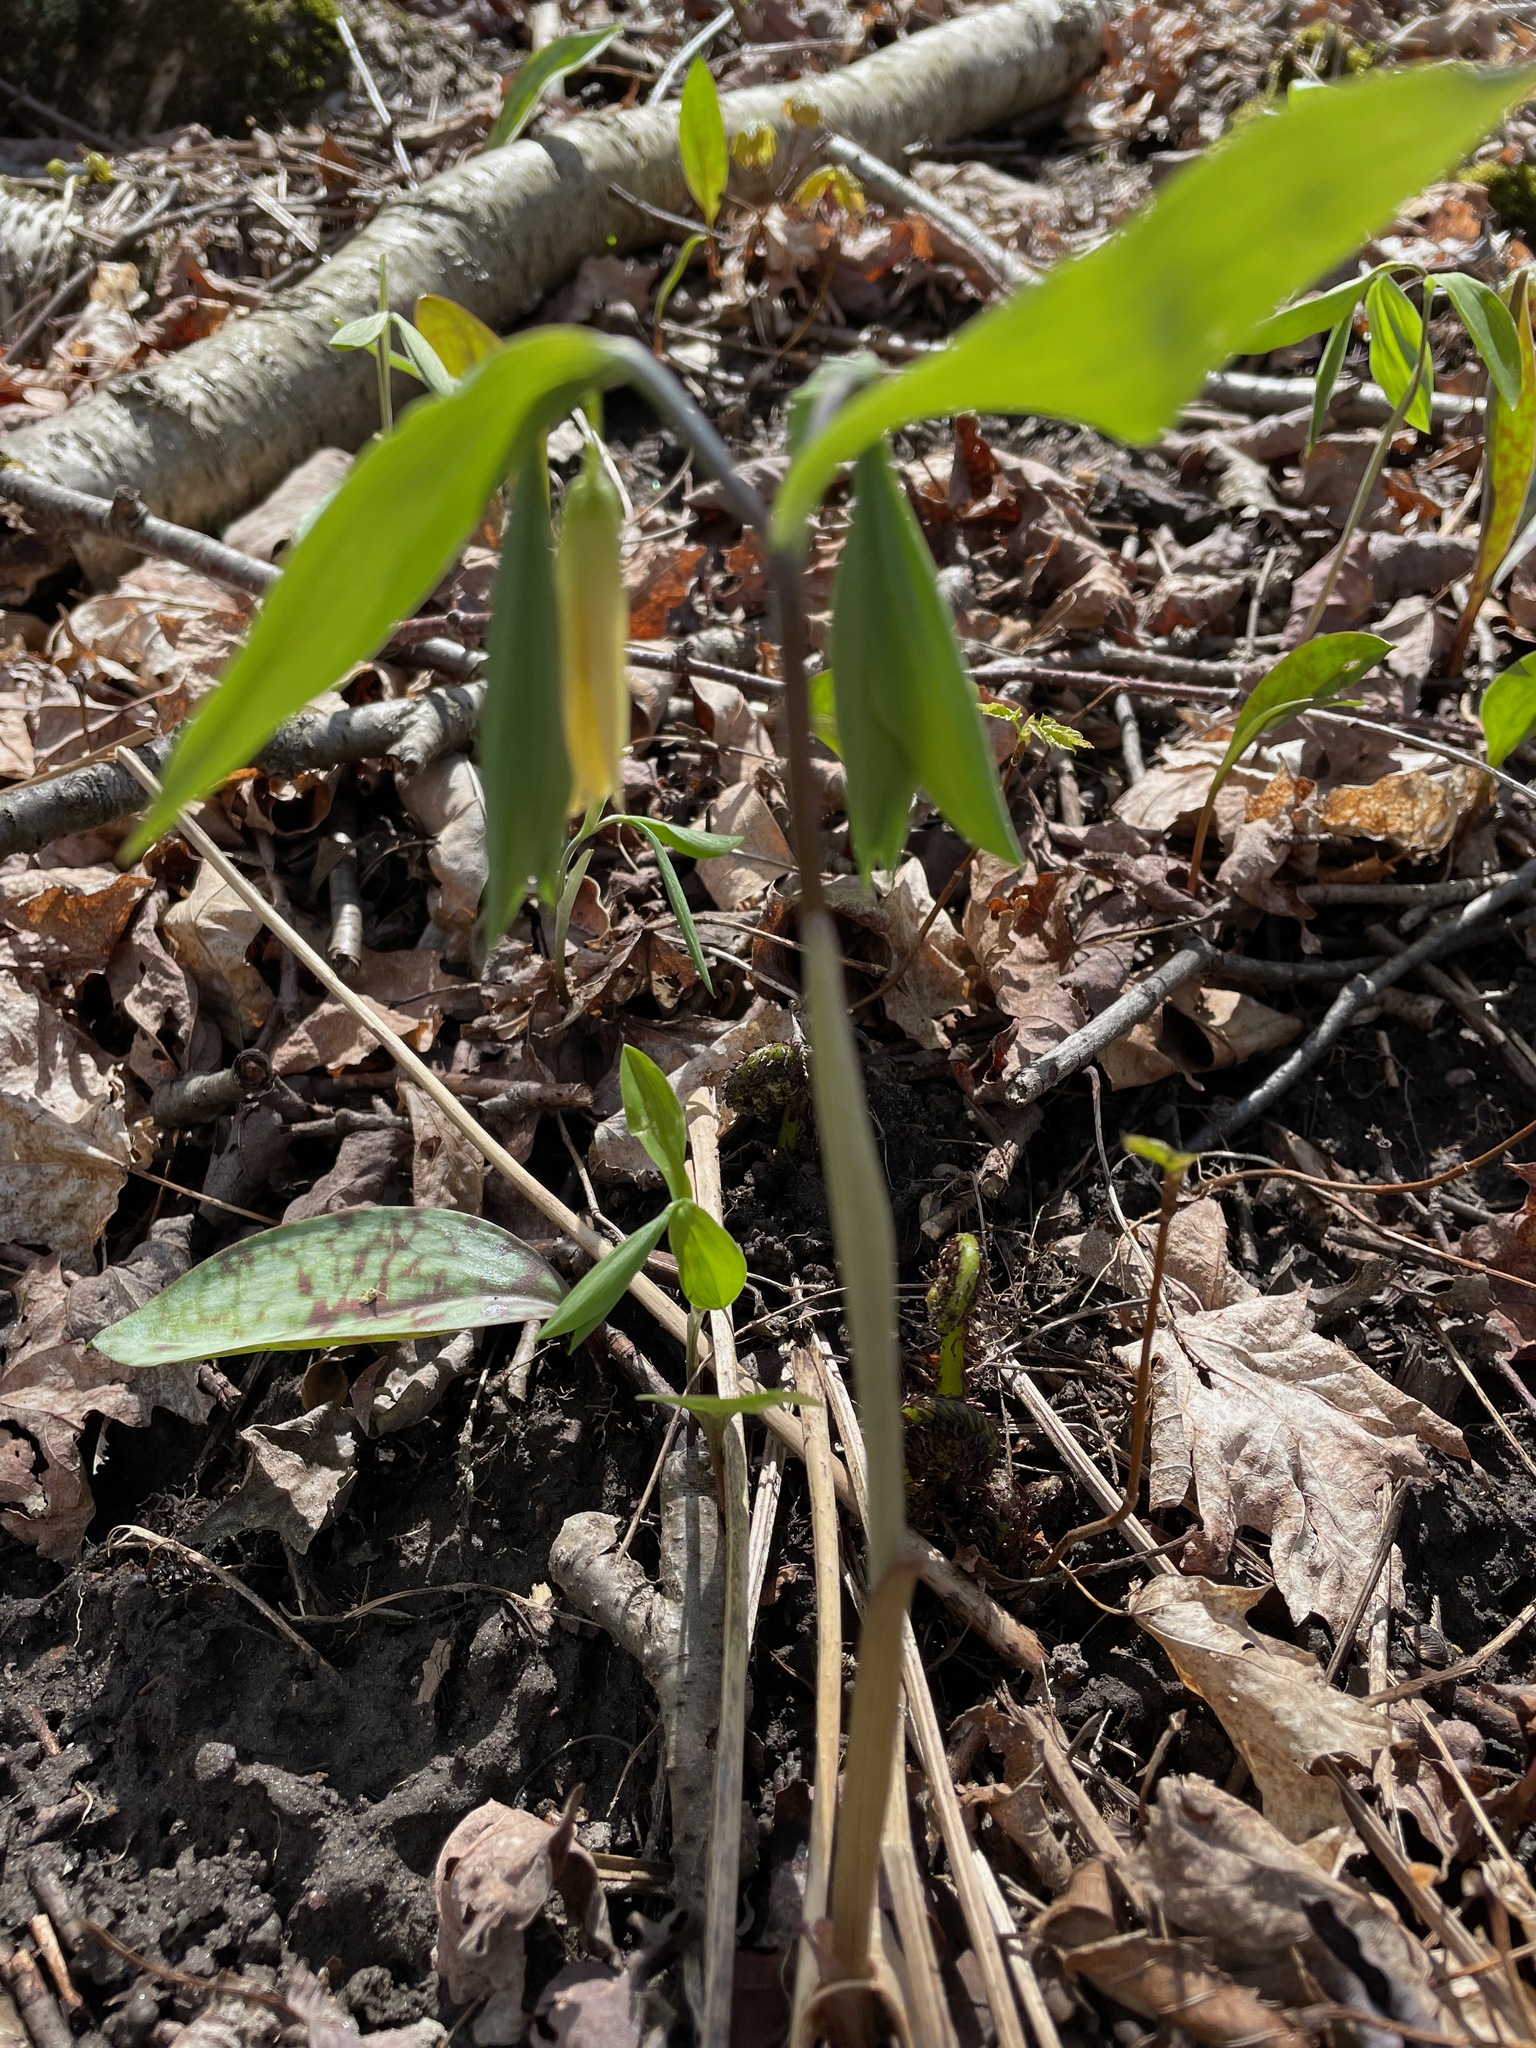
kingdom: Plantae
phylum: Tracheophyta
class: Liliopsida
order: Liliales
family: Colchicaceae
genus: Uvularia
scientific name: Uvularia sessilifolia
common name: Straw-lily
